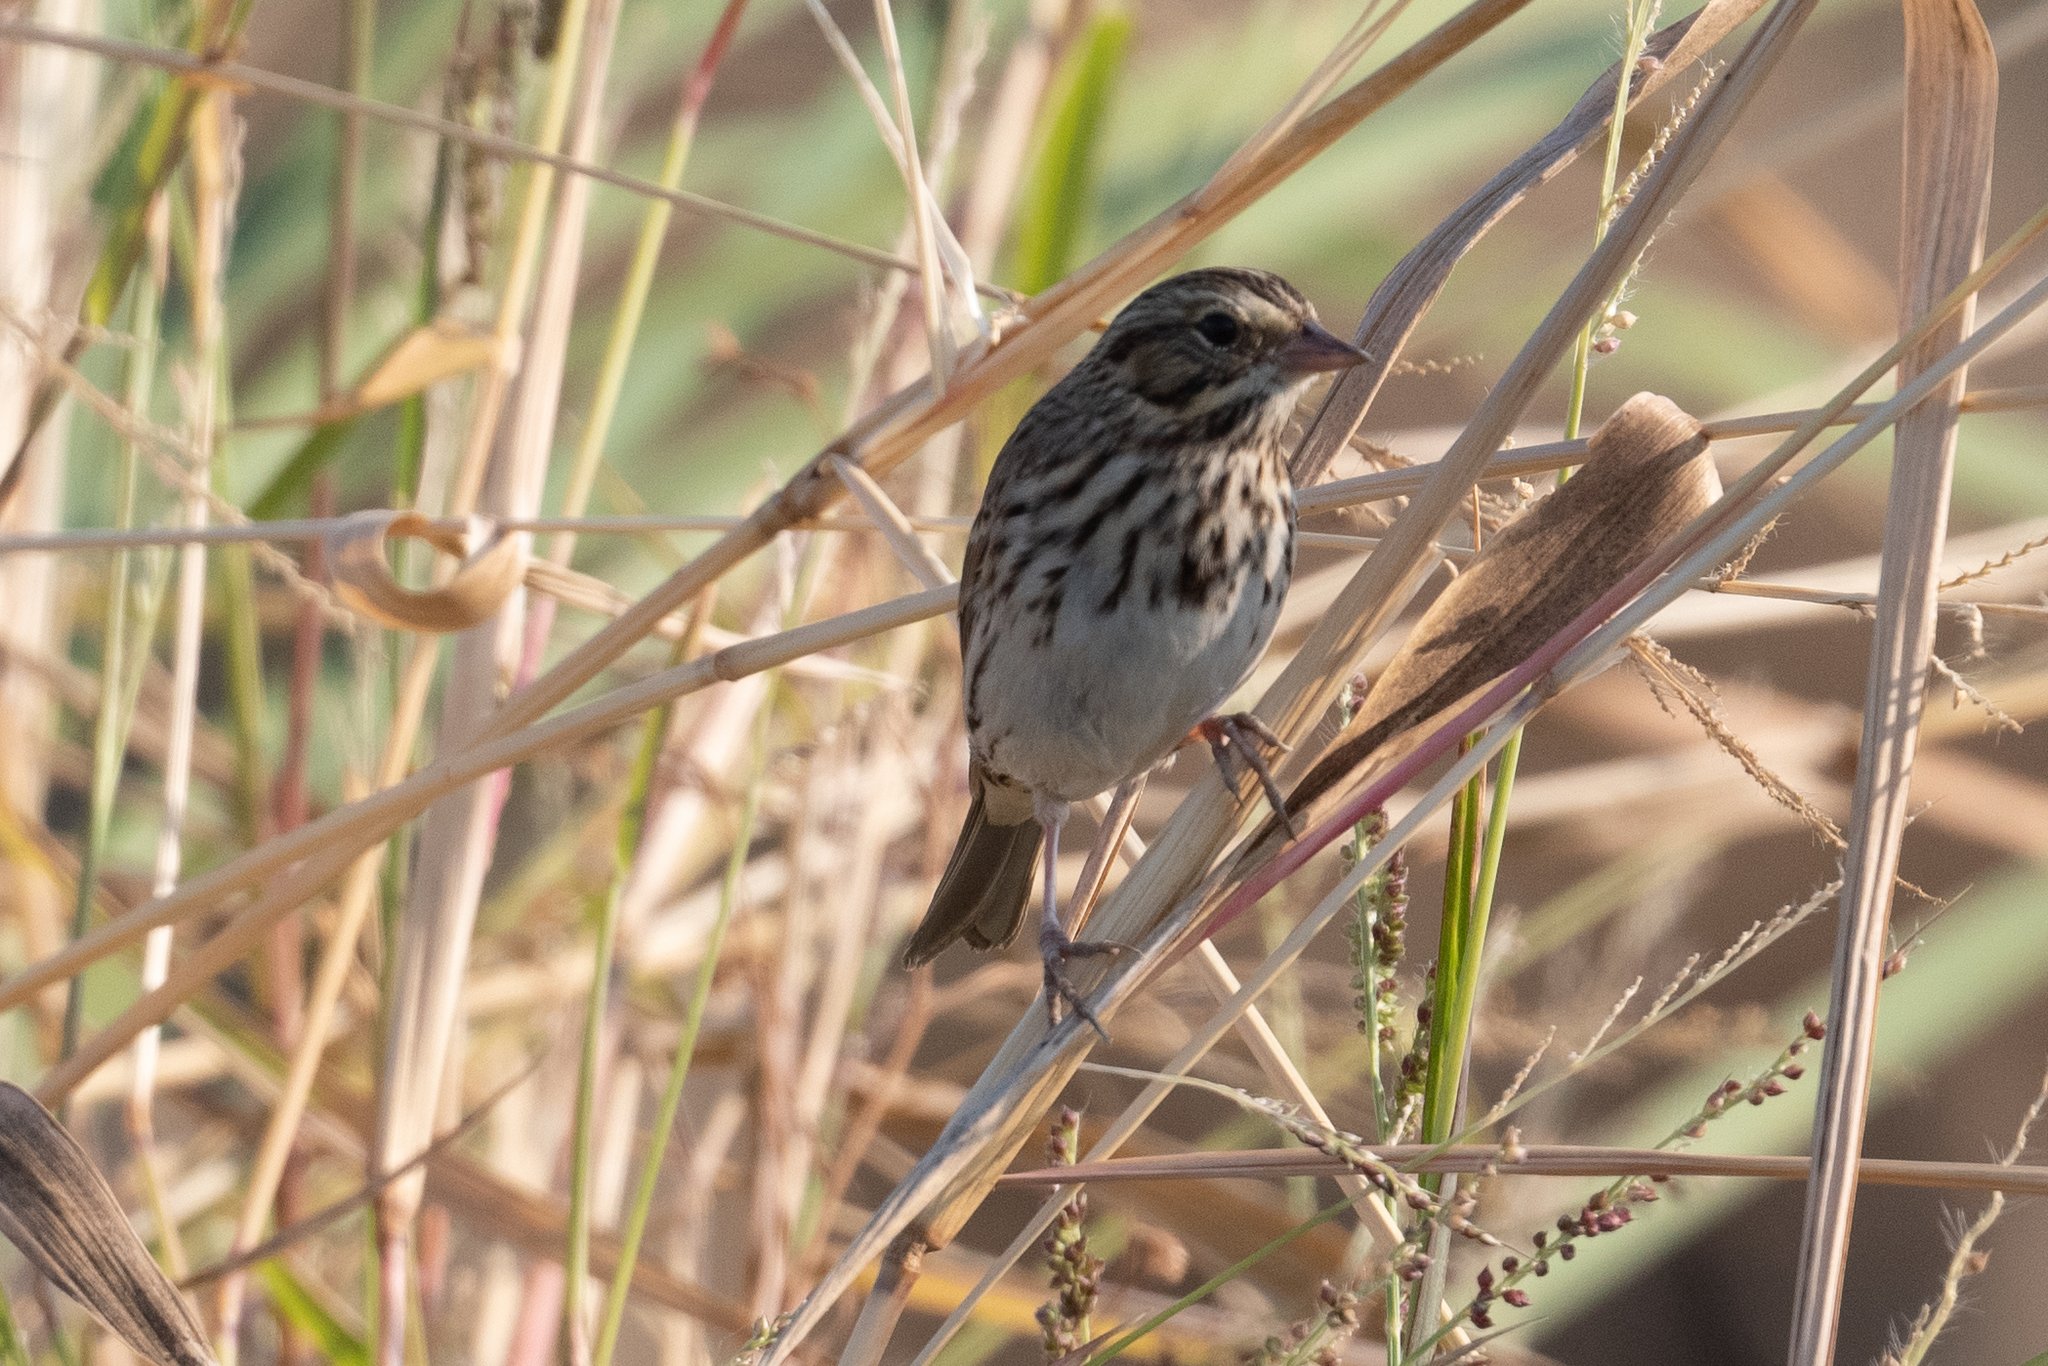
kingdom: Animalia
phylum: Chordata
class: Aves
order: Passeriformes
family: Passerellidae
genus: Passerculus
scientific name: Passerculus sandwichensis
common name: Savannah sparrow
